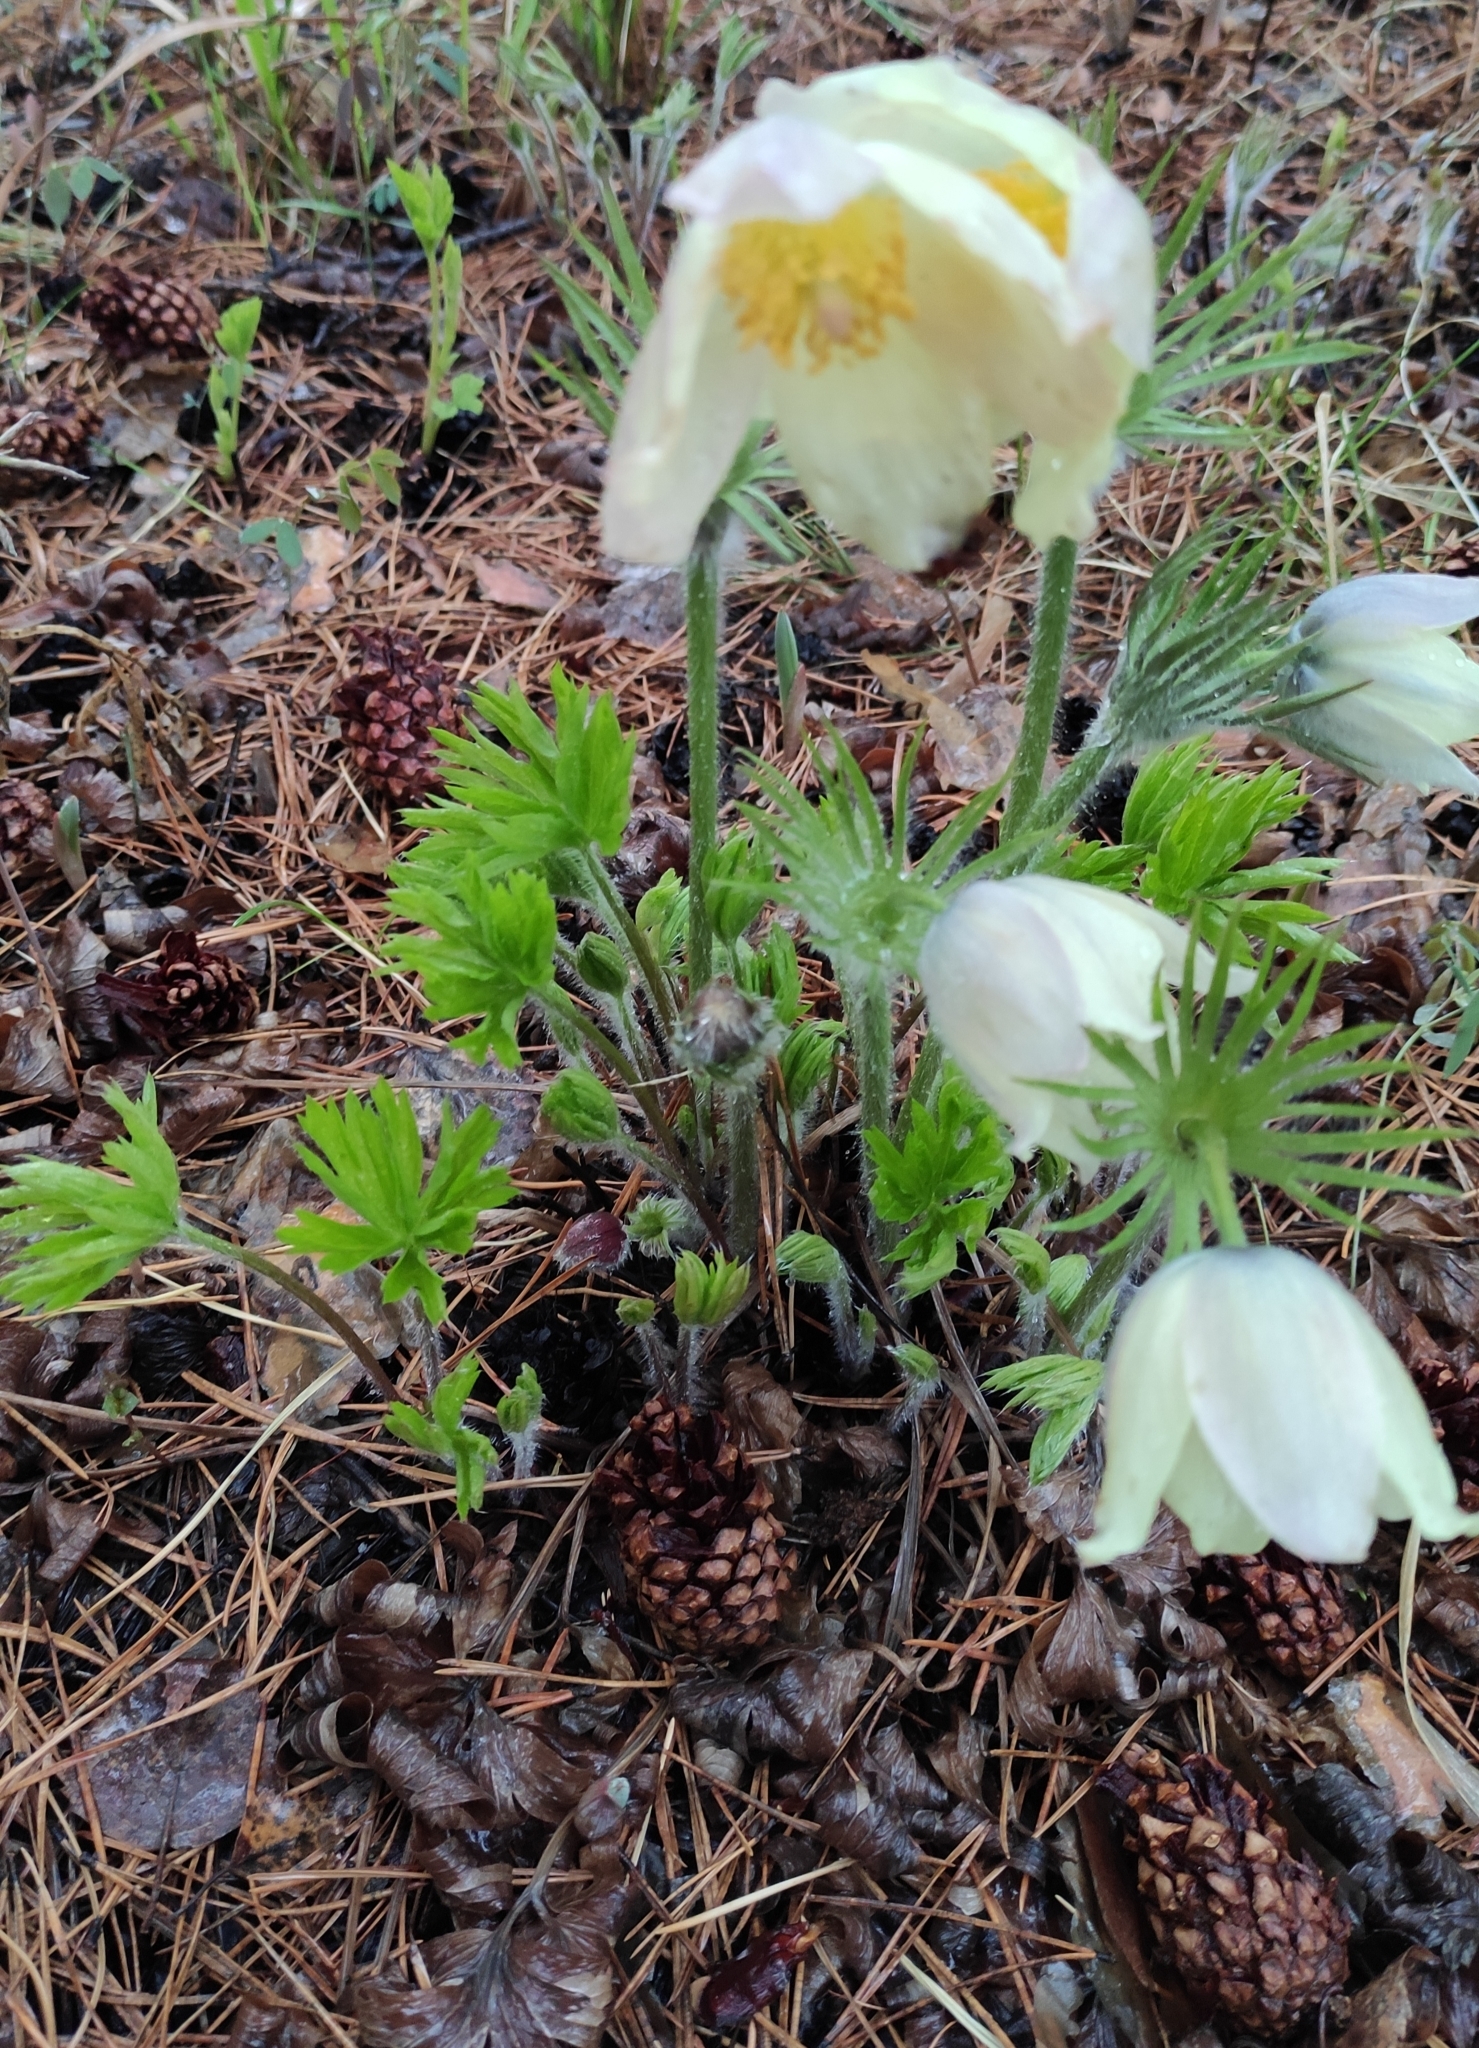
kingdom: Plantae
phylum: Tracheophyta
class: Magnoliopsida
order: Ranunculales
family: Ranunculaceae
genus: Pulsatilla
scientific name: Pulsatilla patens
